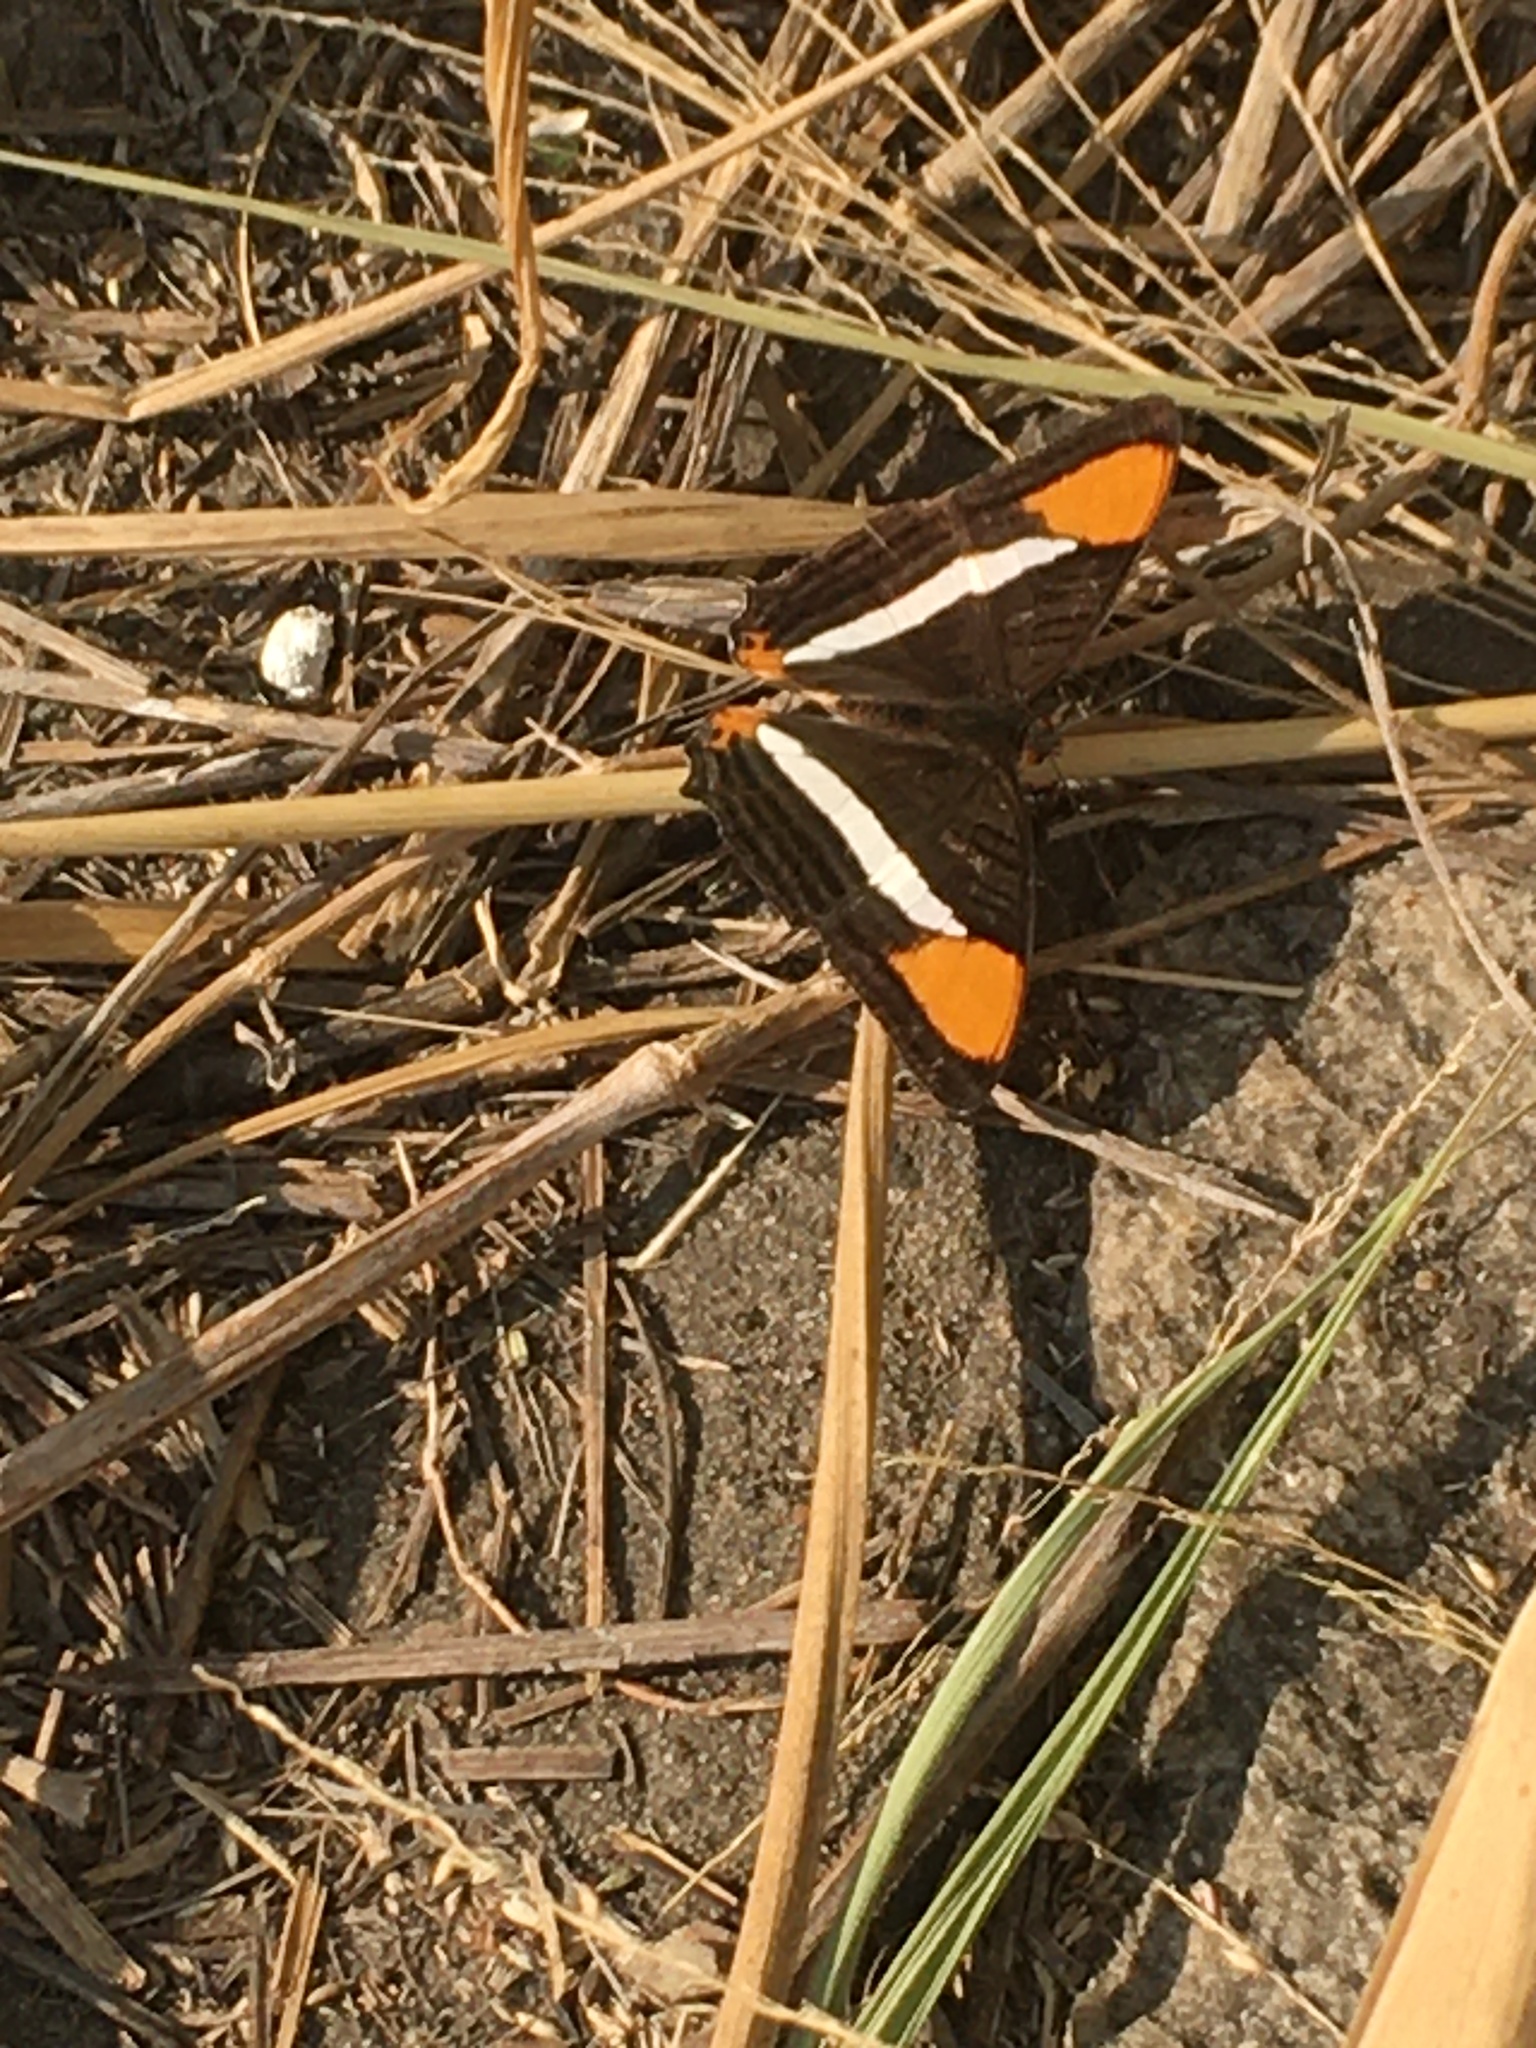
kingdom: Animalia
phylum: Arthropoda
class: Insecta
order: Lepidoptera
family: Nymphalidae
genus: Limenitis
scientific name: Limenitis syma
